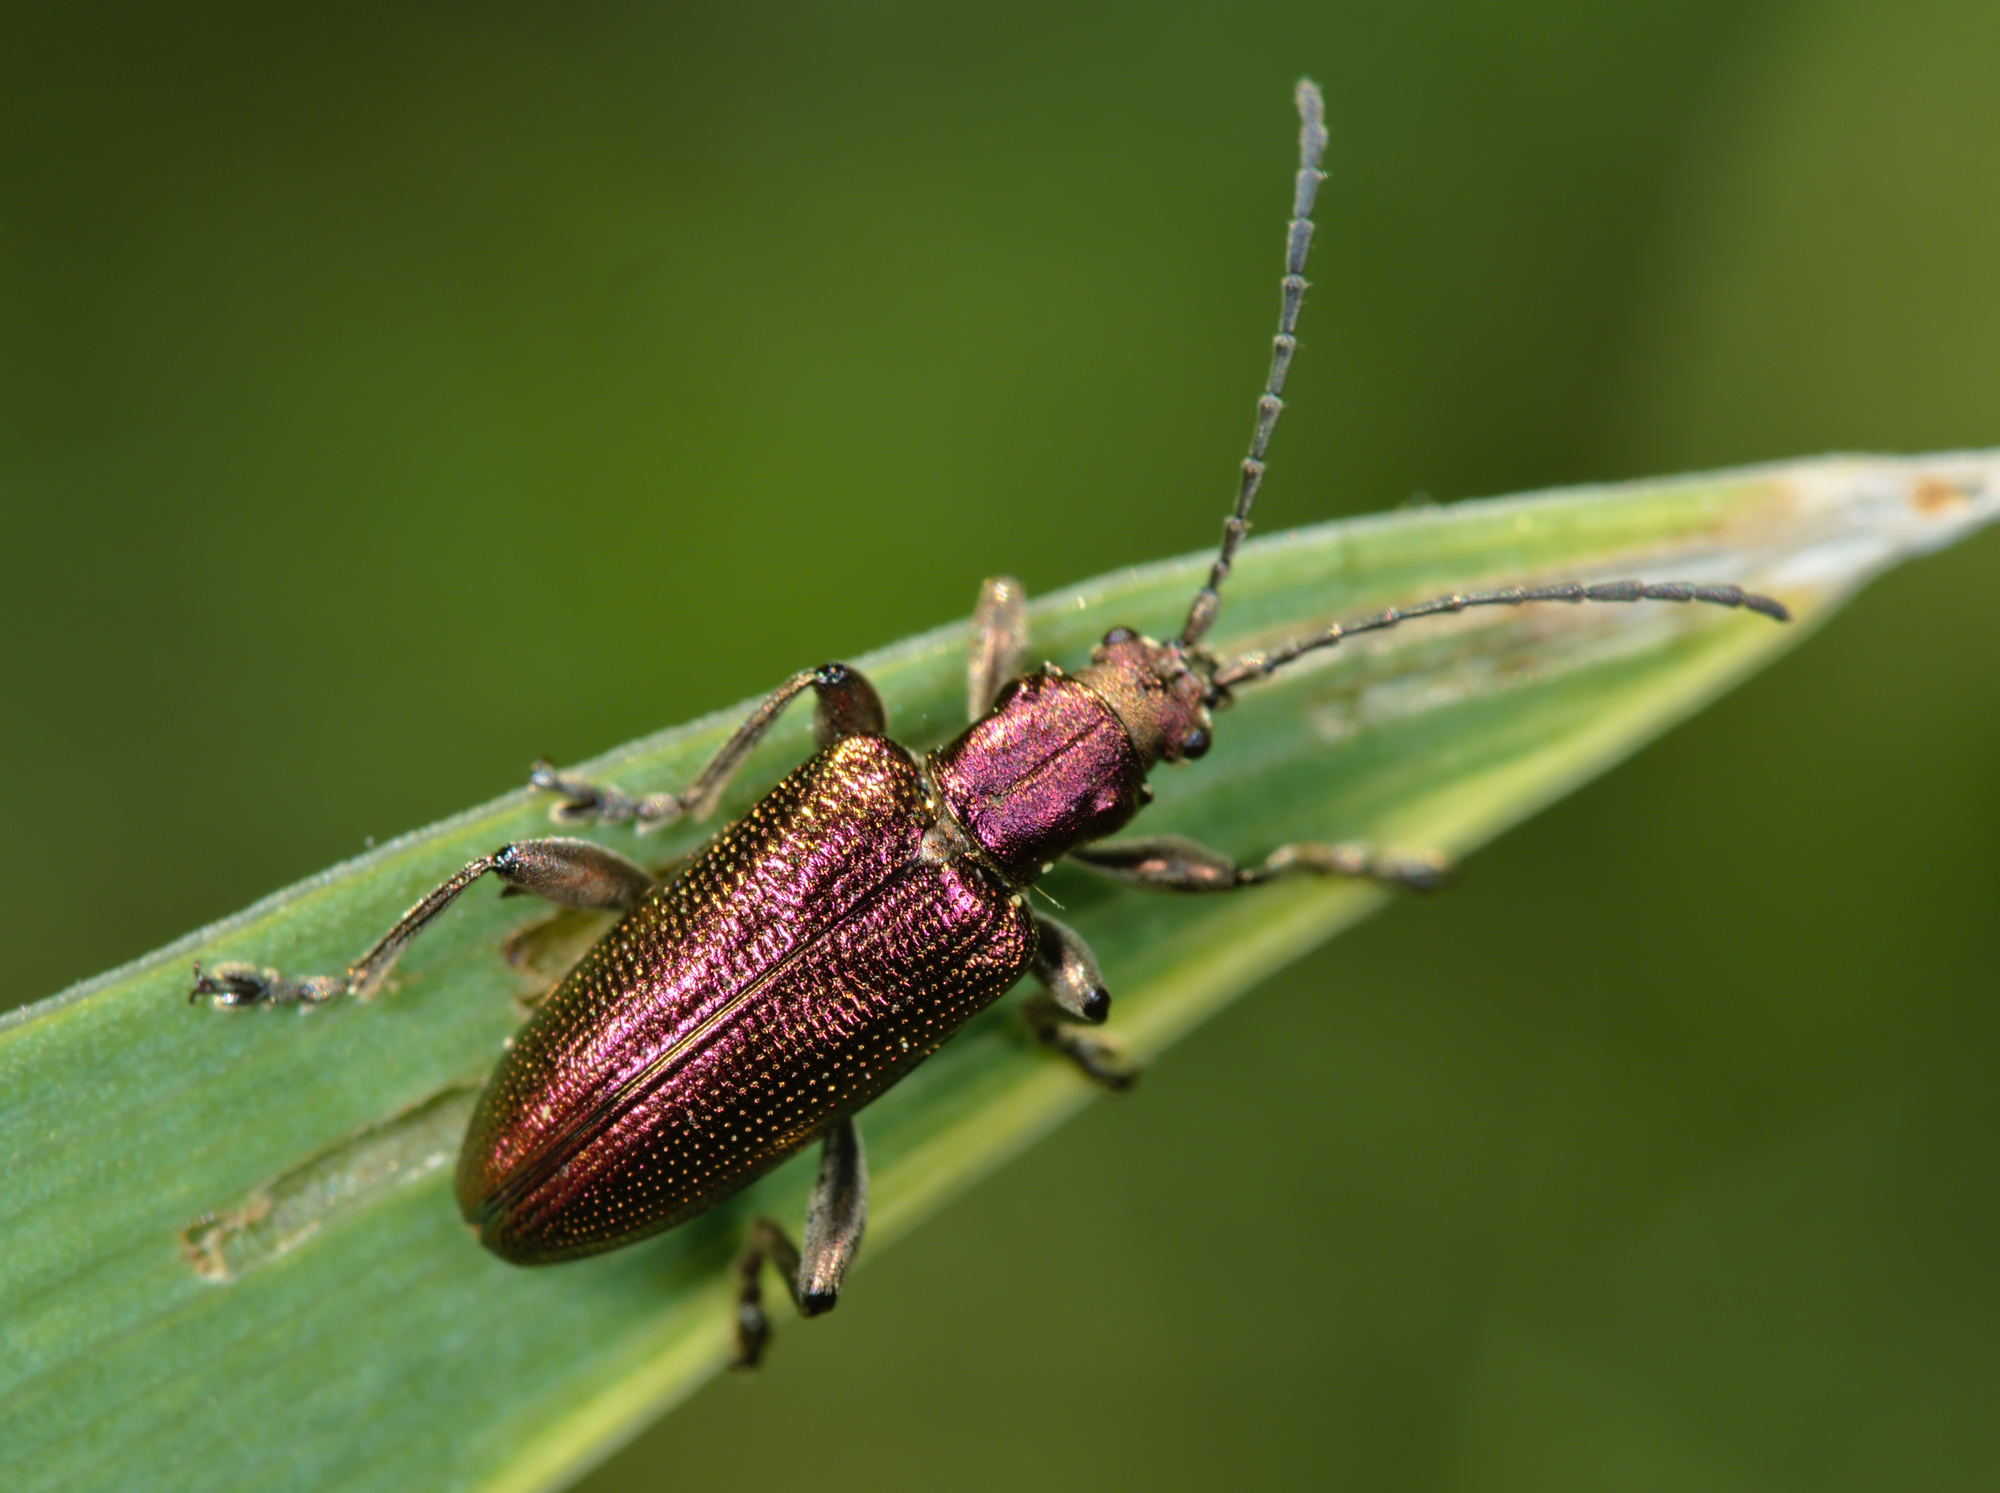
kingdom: Animalia
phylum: Arthropoda
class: Insecta
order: Coleoptera
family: Chrysomelidae
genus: Plateumaris
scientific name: Plateumaris sericea
